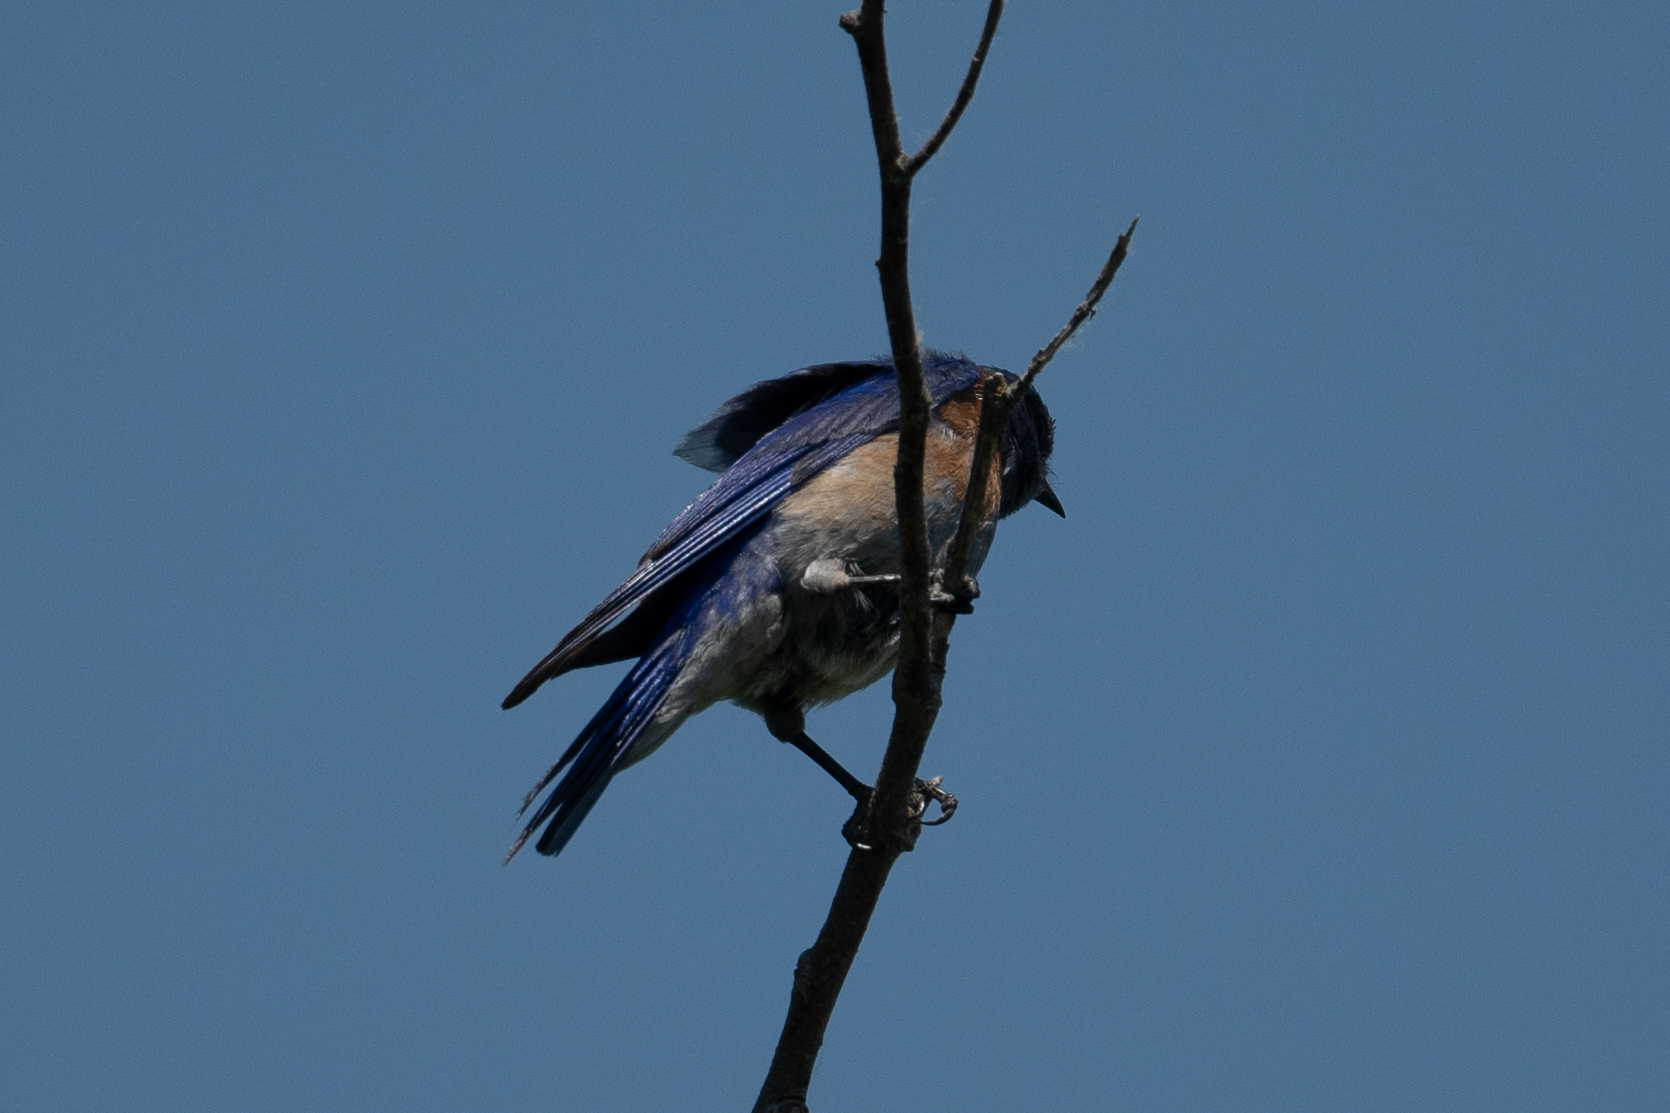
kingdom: Animalia
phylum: Chordata
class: Aves
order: Passeriformes
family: Turdidae
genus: Sialia
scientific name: Sialia mexicana
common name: Western bluebird
